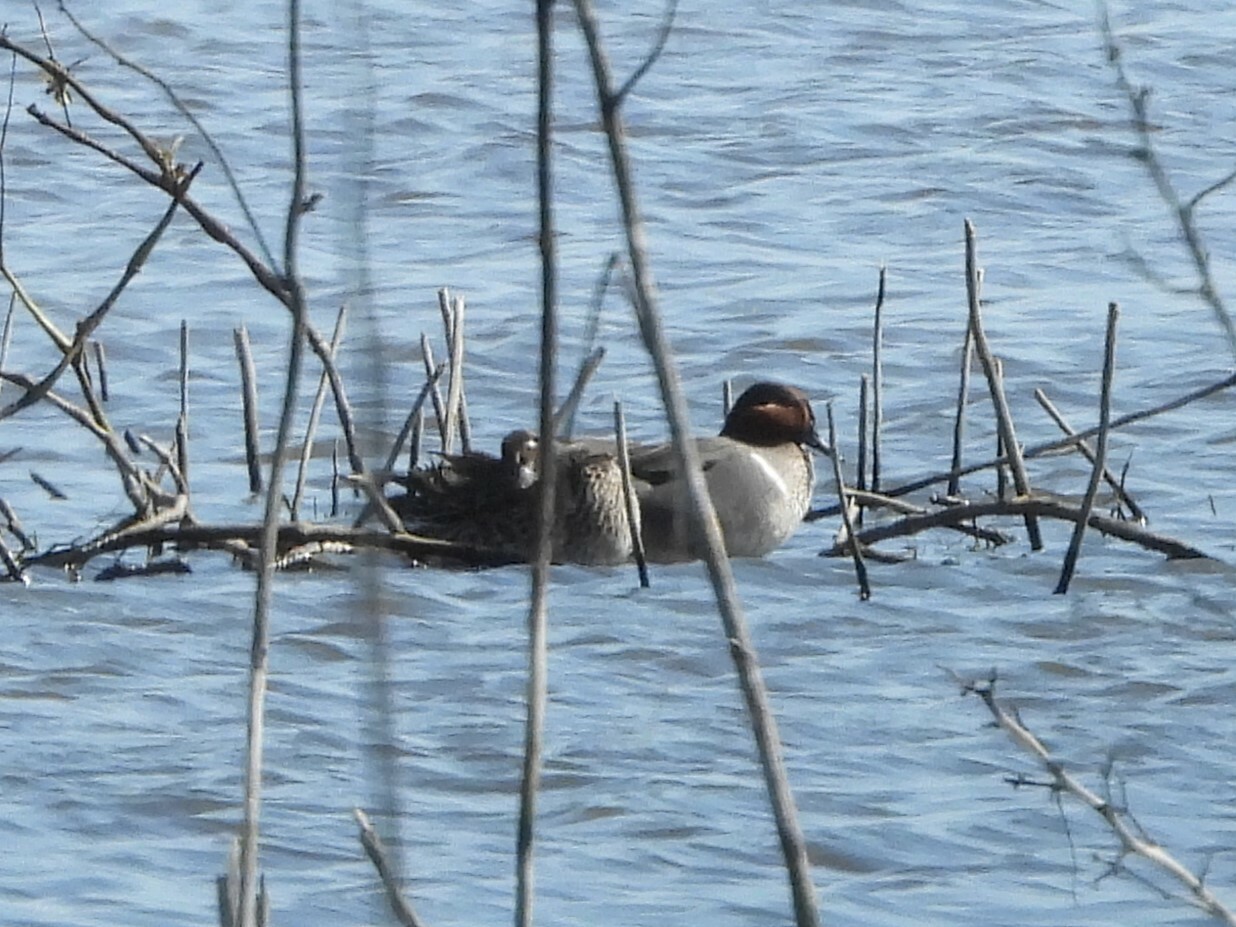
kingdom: Animalia
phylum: Chordata
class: Aves
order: Anseriformes
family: Anatidae
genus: Anas
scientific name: Anas crecca
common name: Eurasian teal
